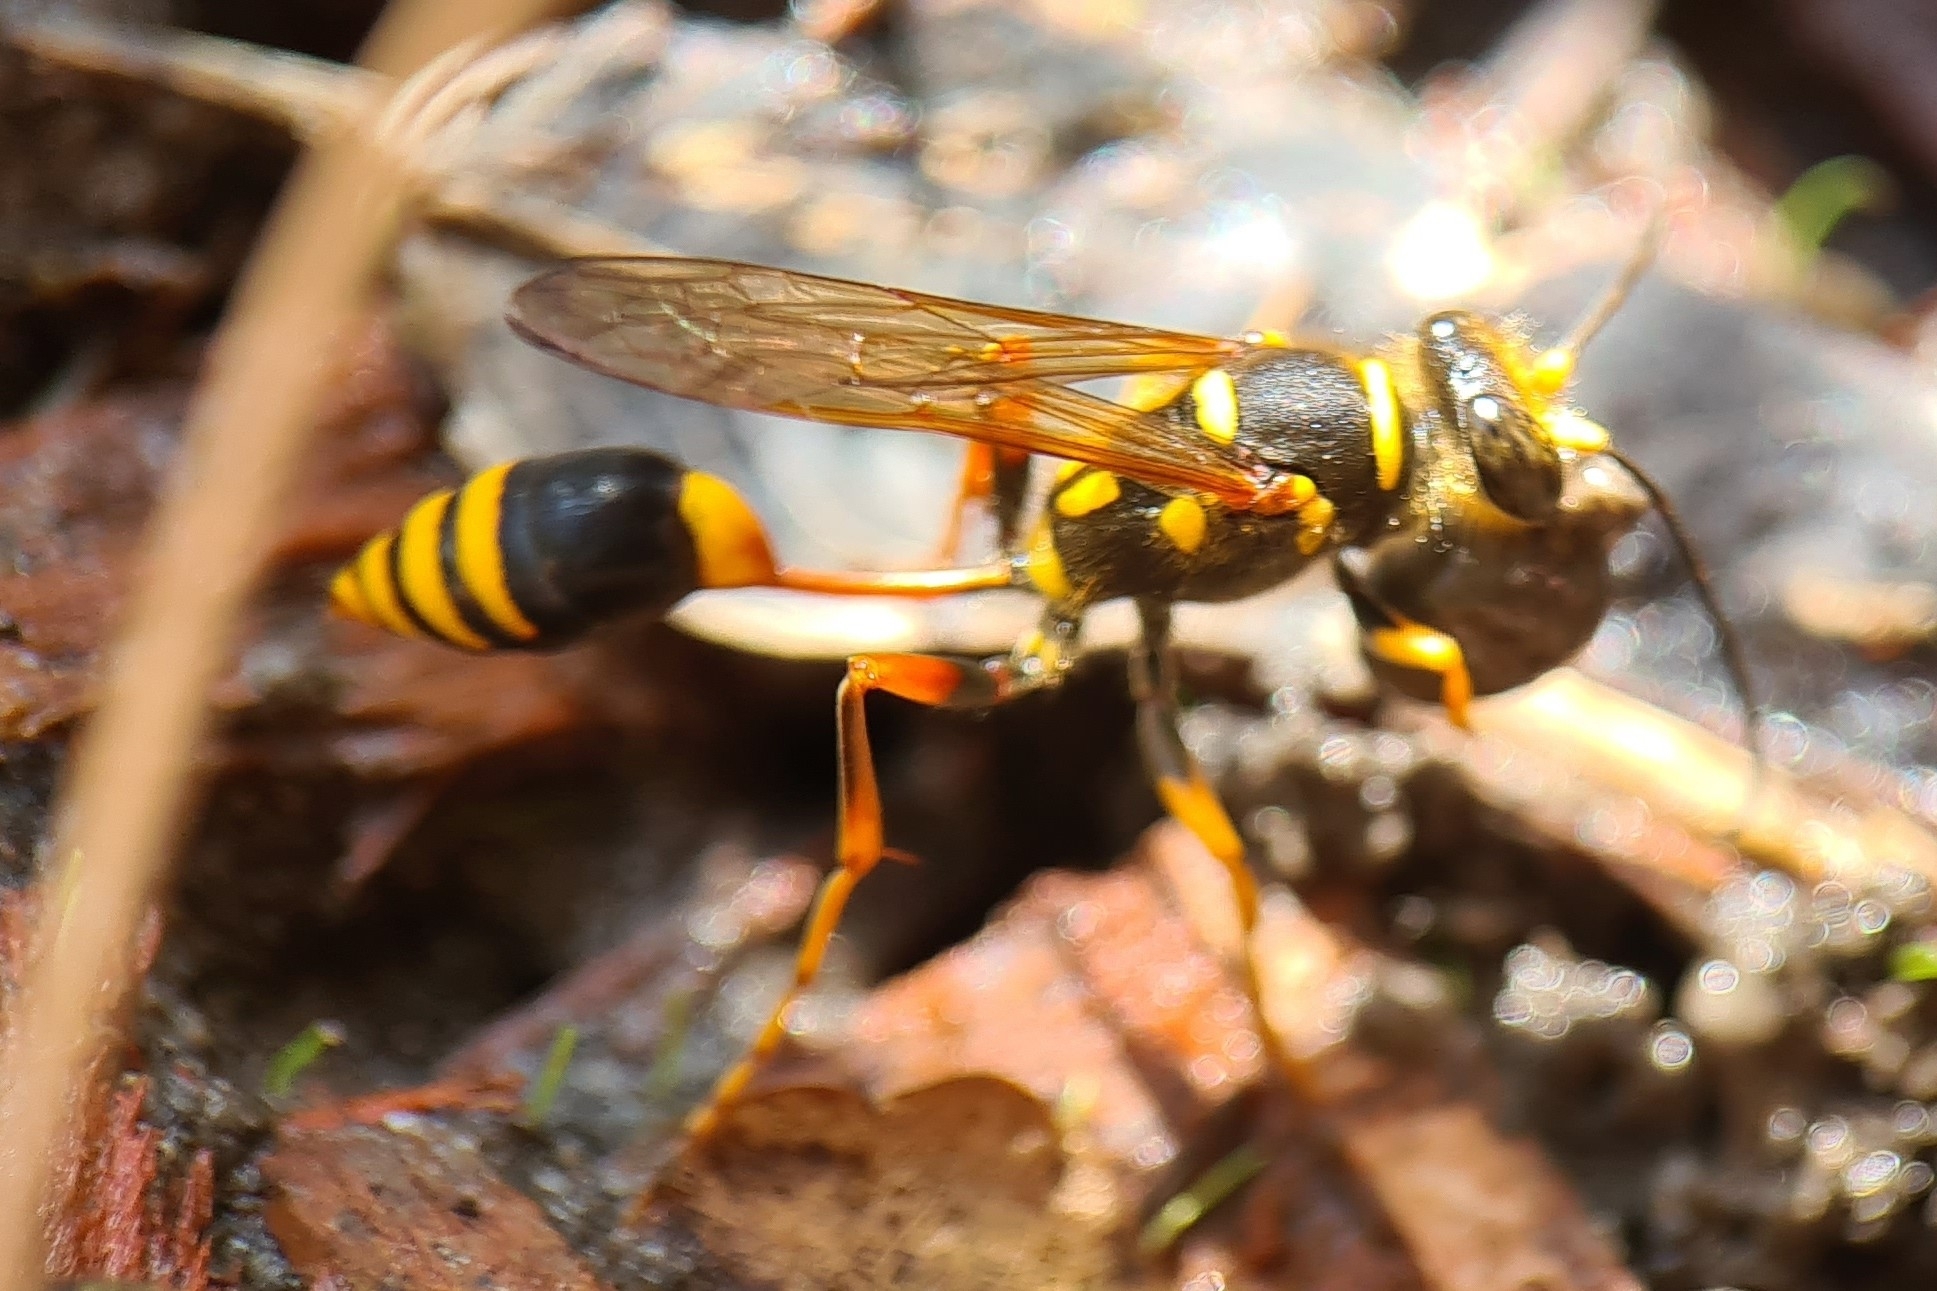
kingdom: Animalia
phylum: Arthropoda
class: Insecta
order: Hymenoptera
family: Sphecidae
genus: Sceliphron
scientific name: Sceliphron formosum
